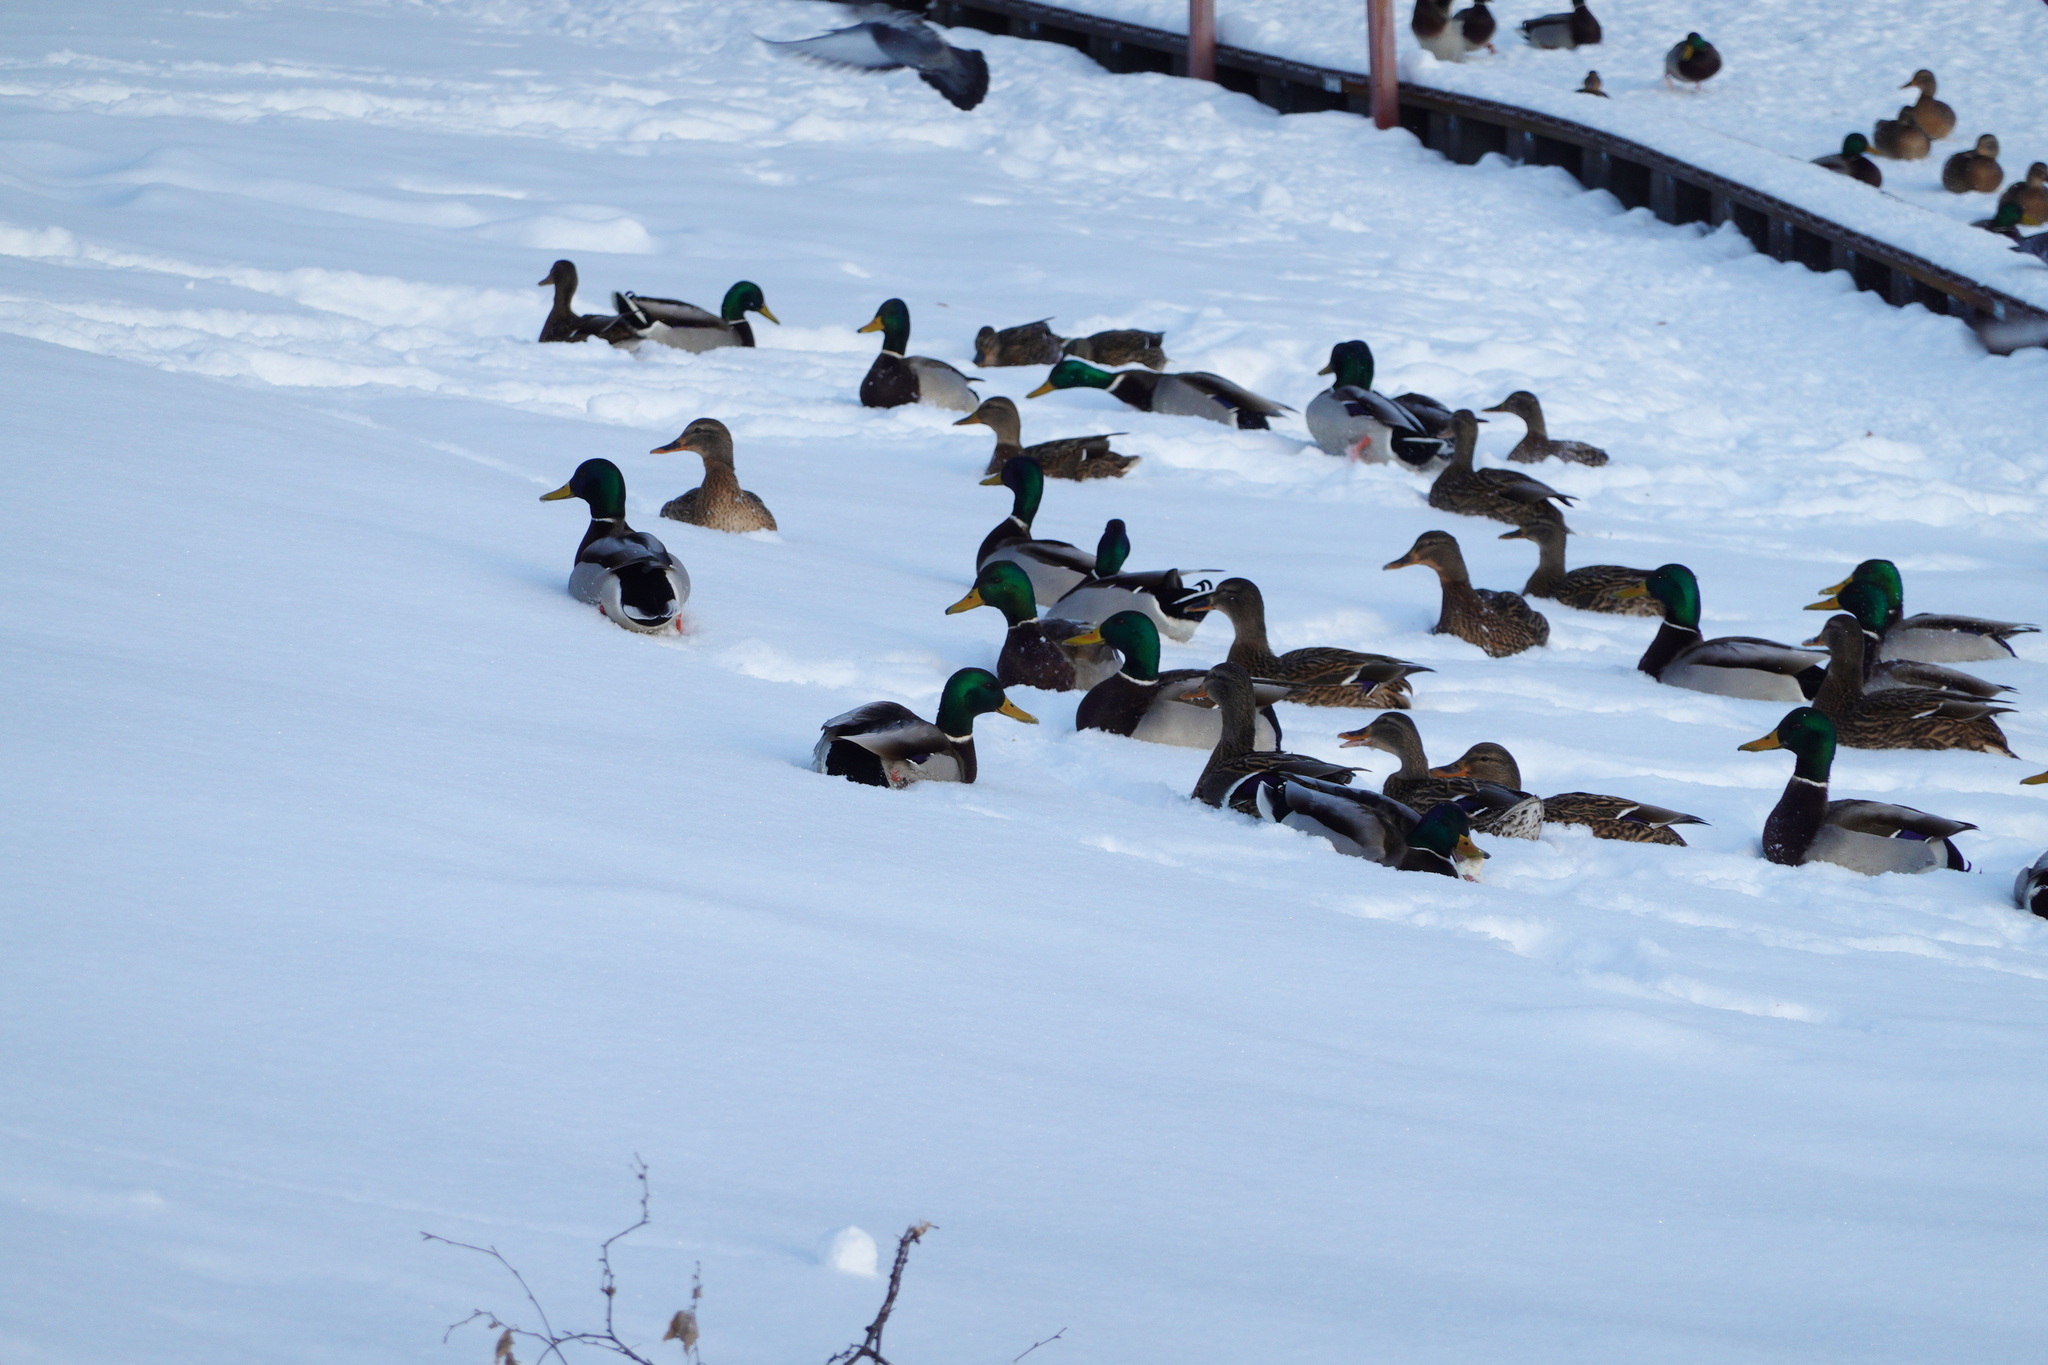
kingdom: Animalia
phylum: Chordata
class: Aves
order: Anseriformes
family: Anatidae
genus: Anas
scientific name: Anas platyrhynchos
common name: Mallard
